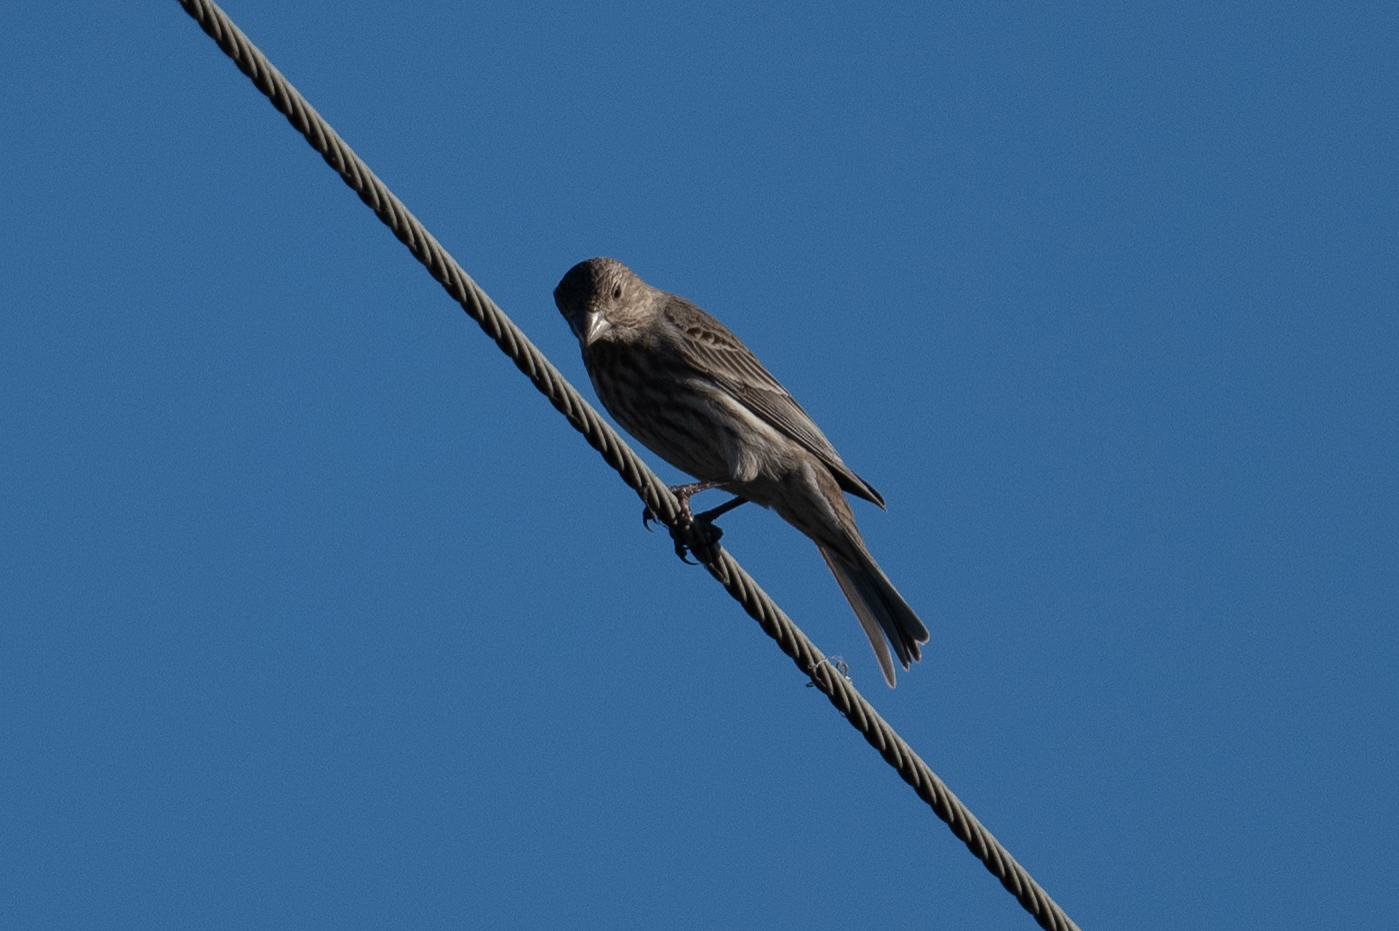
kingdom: Animalia
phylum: Chordata
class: Aves
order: Passeriformes
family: Fringillidae
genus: Haemorhous
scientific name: Haemorhous mexicanus
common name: House finch
